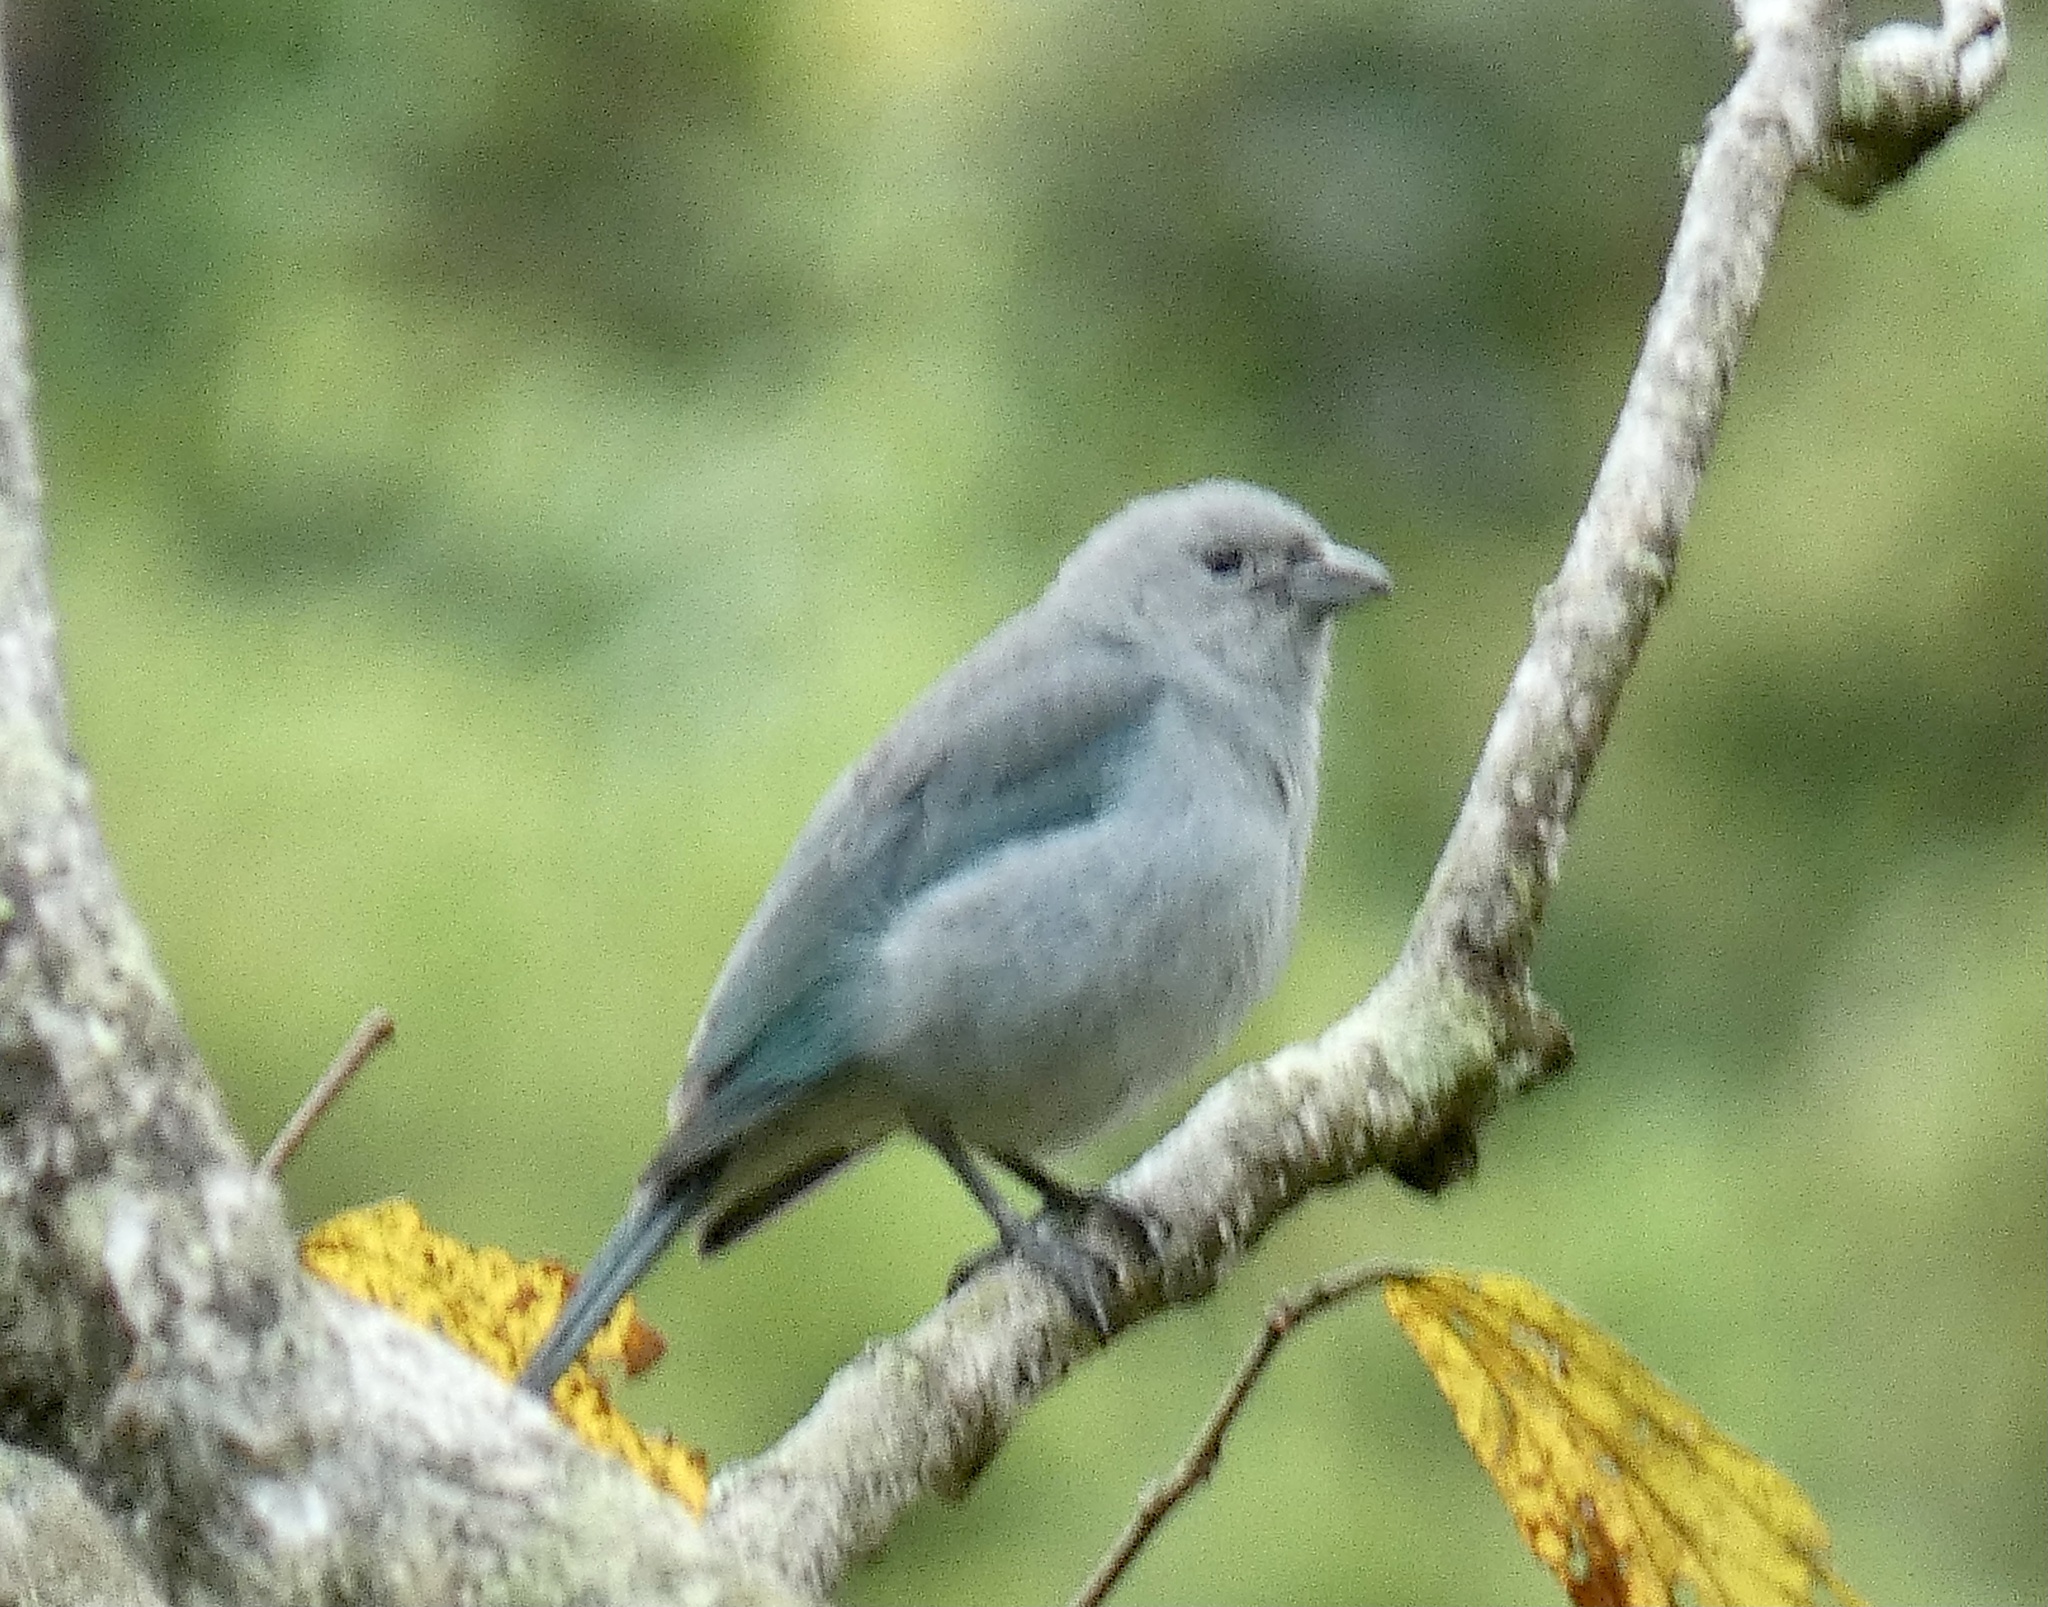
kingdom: Animalia
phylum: Chordata
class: Aves
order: Passeriformes
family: Thraupidae
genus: Thraupis
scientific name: Thraupis sayaca
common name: Sayaca tanager
